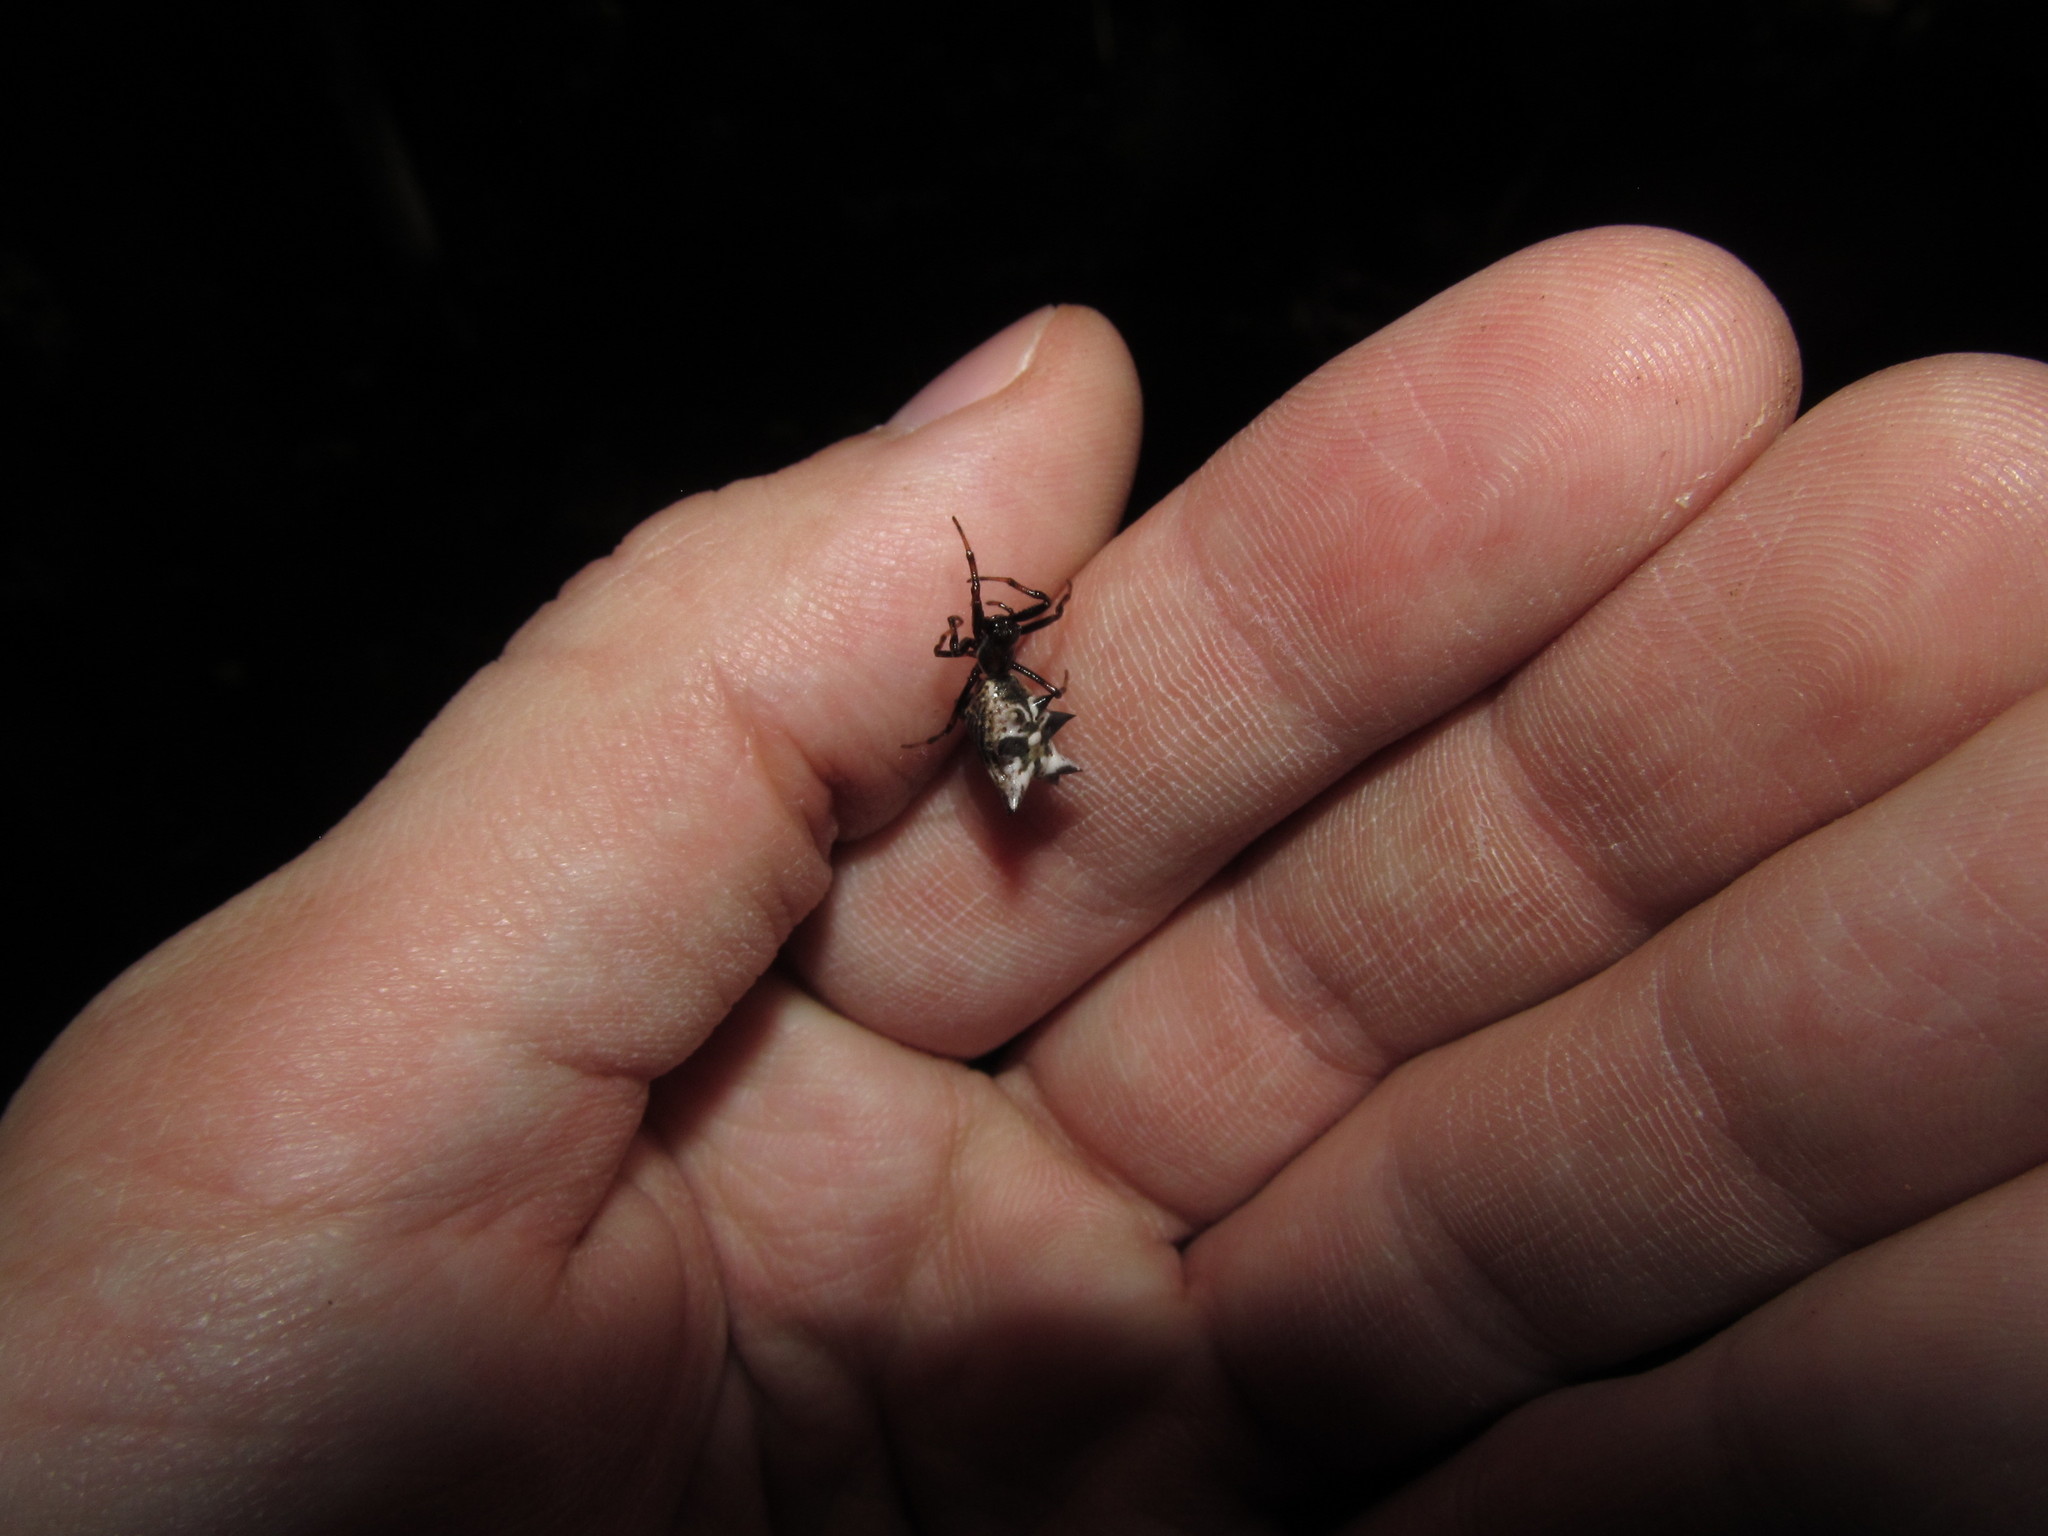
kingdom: Animalia
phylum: Arthropoda
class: Arachnida
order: Araneae
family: Araneidae
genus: Micrathena
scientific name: Micrathena gracilis
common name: Orb weavers
